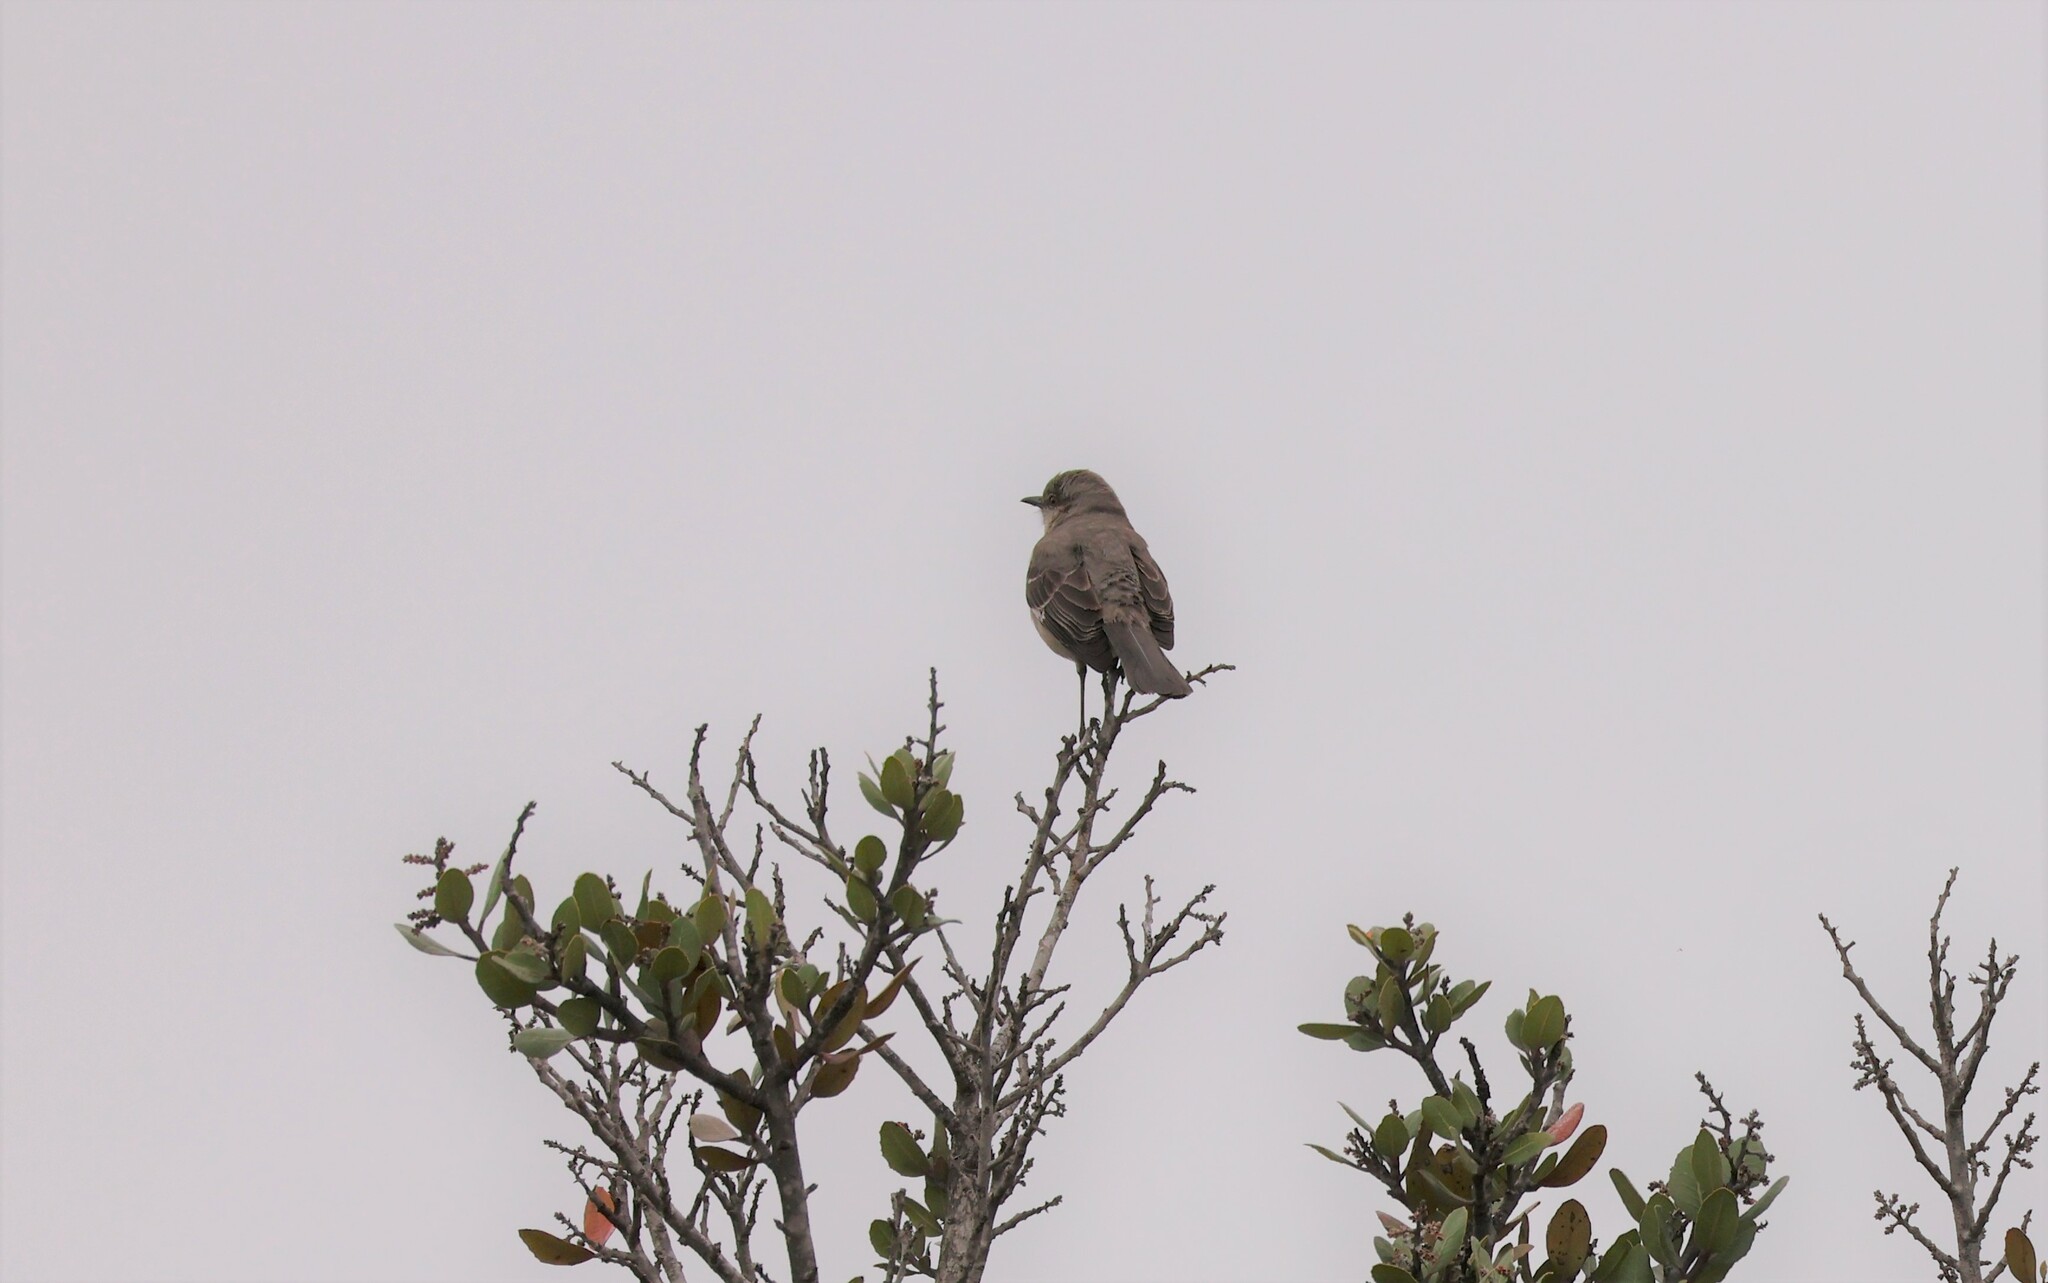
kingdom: Animalia
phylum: Chordata
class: Aves
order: Passeriformes
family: Mimidae
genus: Mimus
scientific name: Mimus polyglottos
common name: Northern mockingbird
